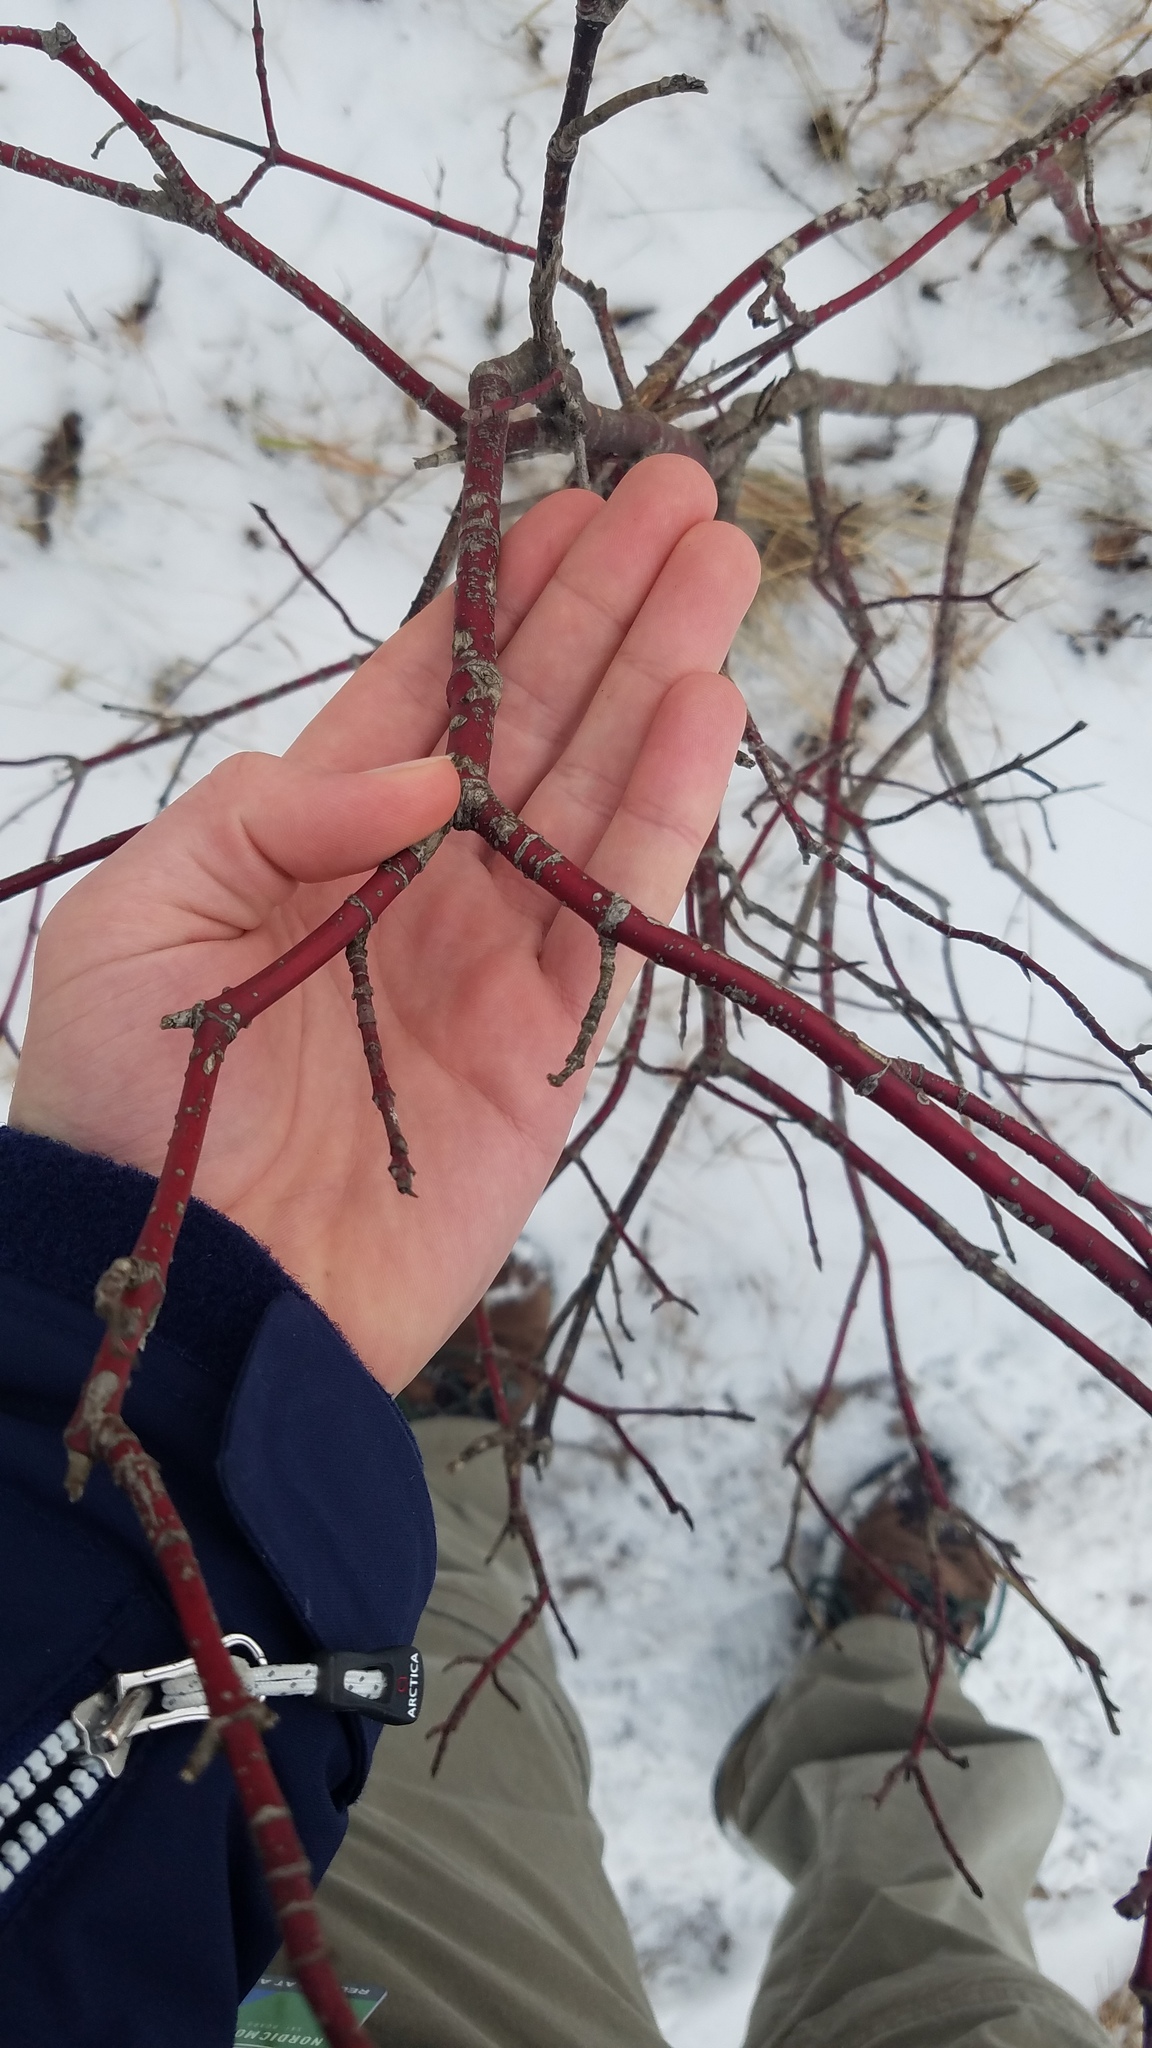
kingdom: Plantae
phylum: Tracheophyta
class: Magnoliopsida
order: Cornales
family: Cornaceae
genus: Cornus
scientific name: Cornus sericea
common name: Red-osier dogwood
